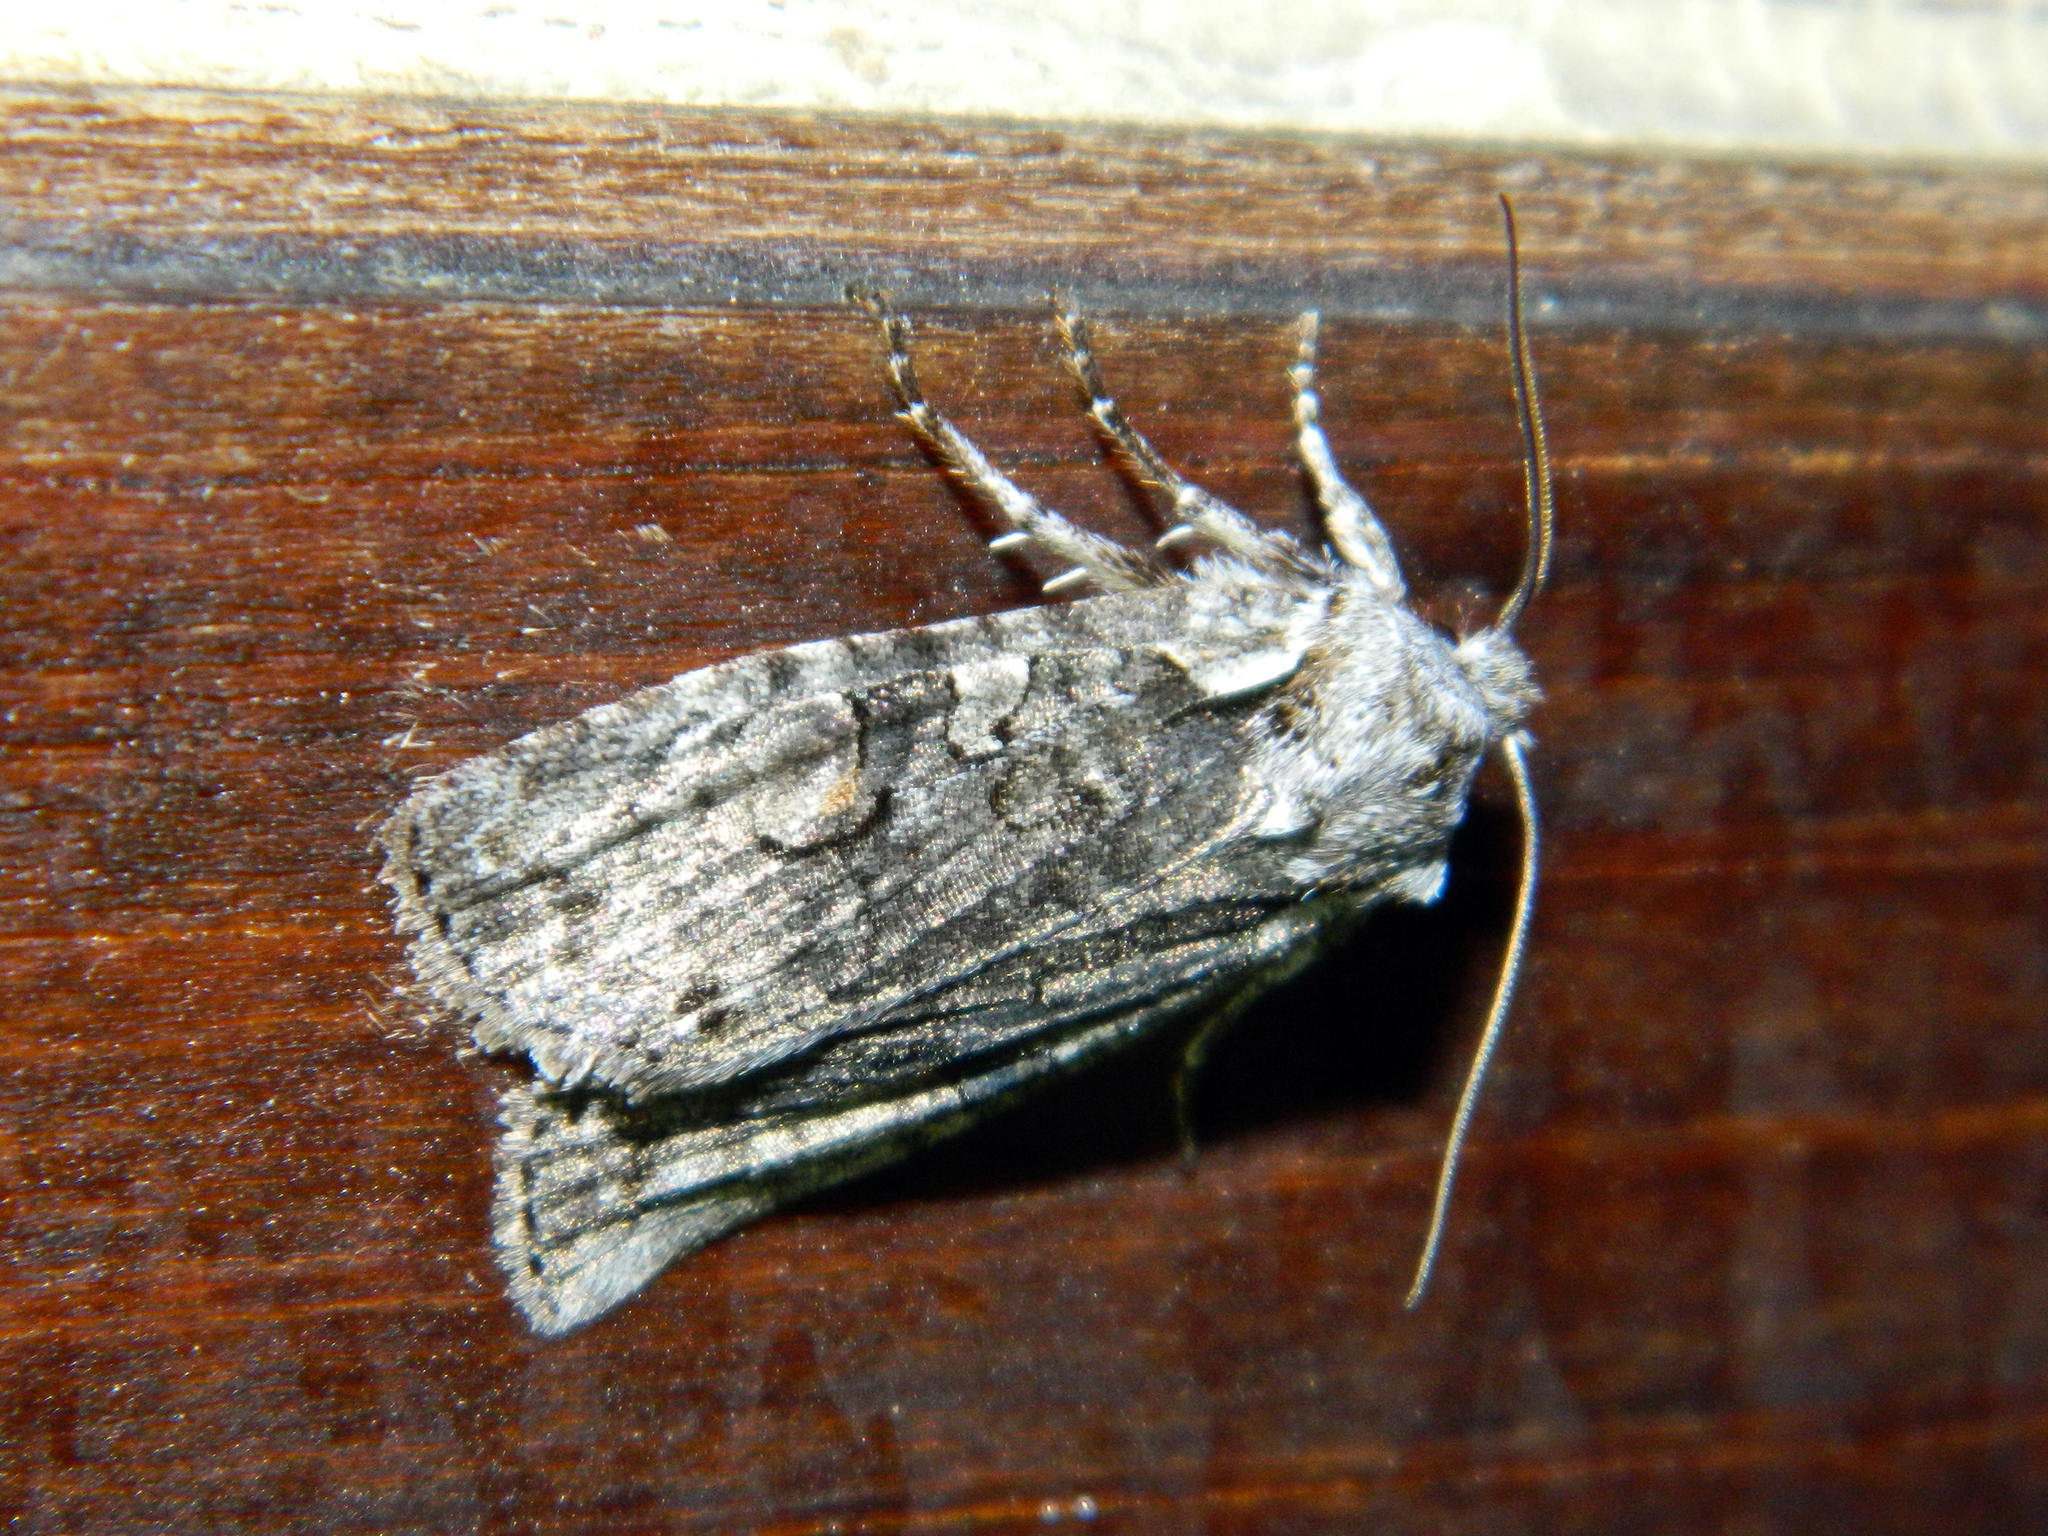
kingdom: Animalia
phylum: Arthropoda
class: Insecta
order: Lepidoptera
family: Noctuidae
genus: Lithophane
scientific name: Lithophane baileyi
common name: Bailey's pinion moth
